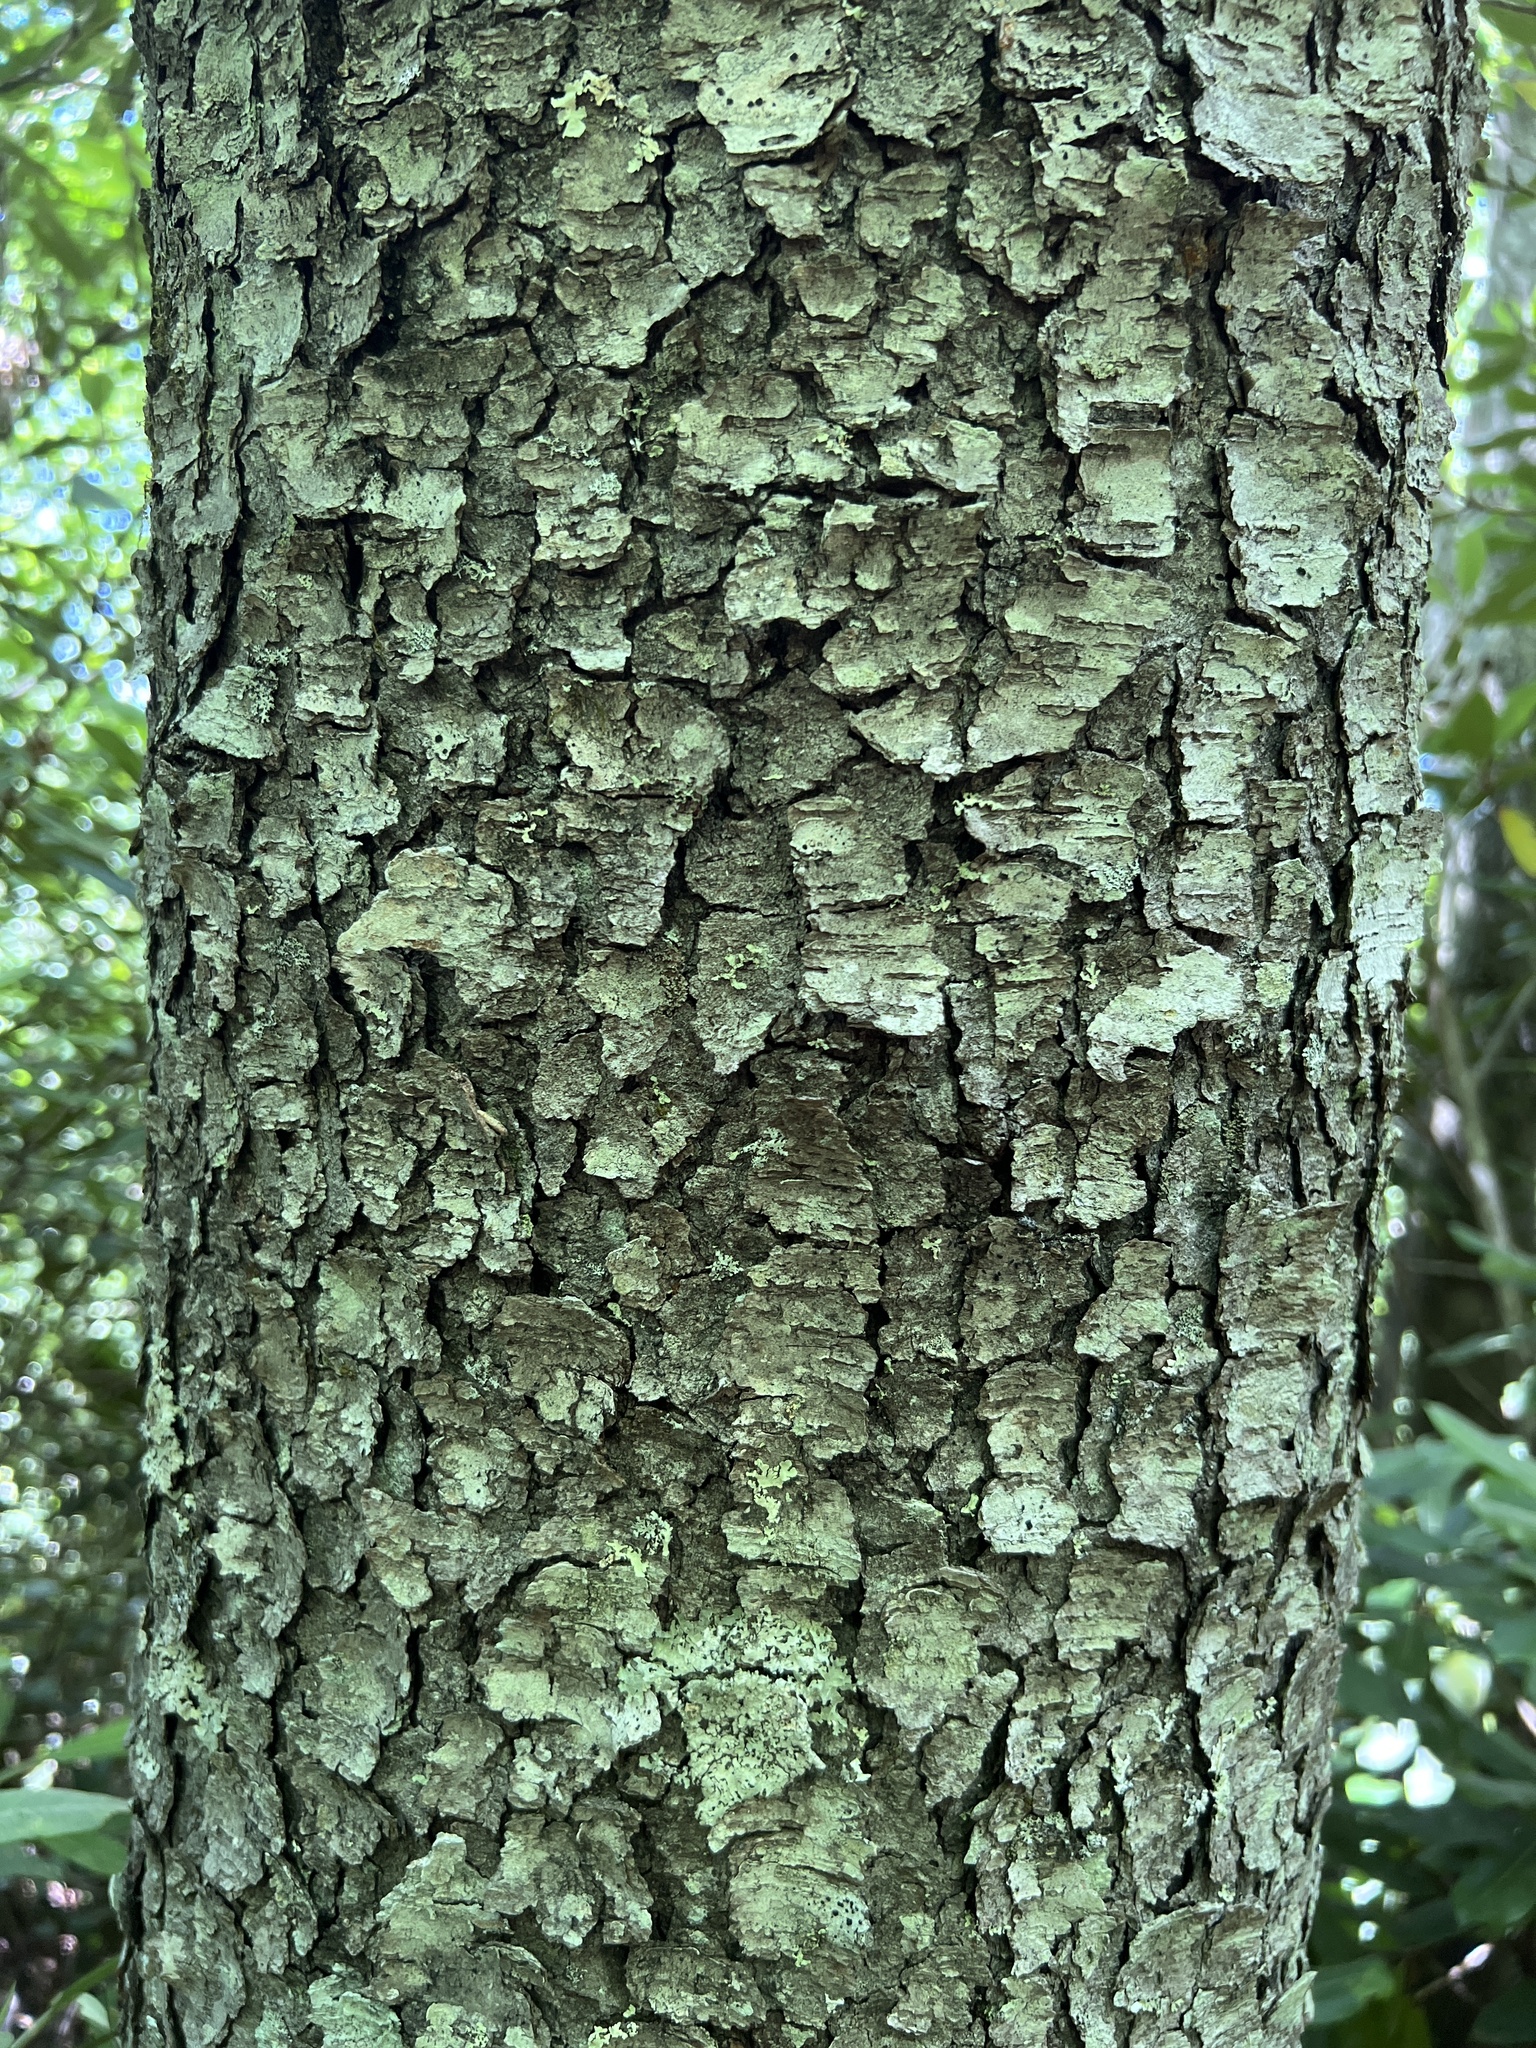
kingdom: Plantae
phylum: Tracheophyta
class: Magnoliopsida
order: Rosales
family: Rosaceae
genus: Prunus
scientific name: Prunus serotina
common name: Black cherry
